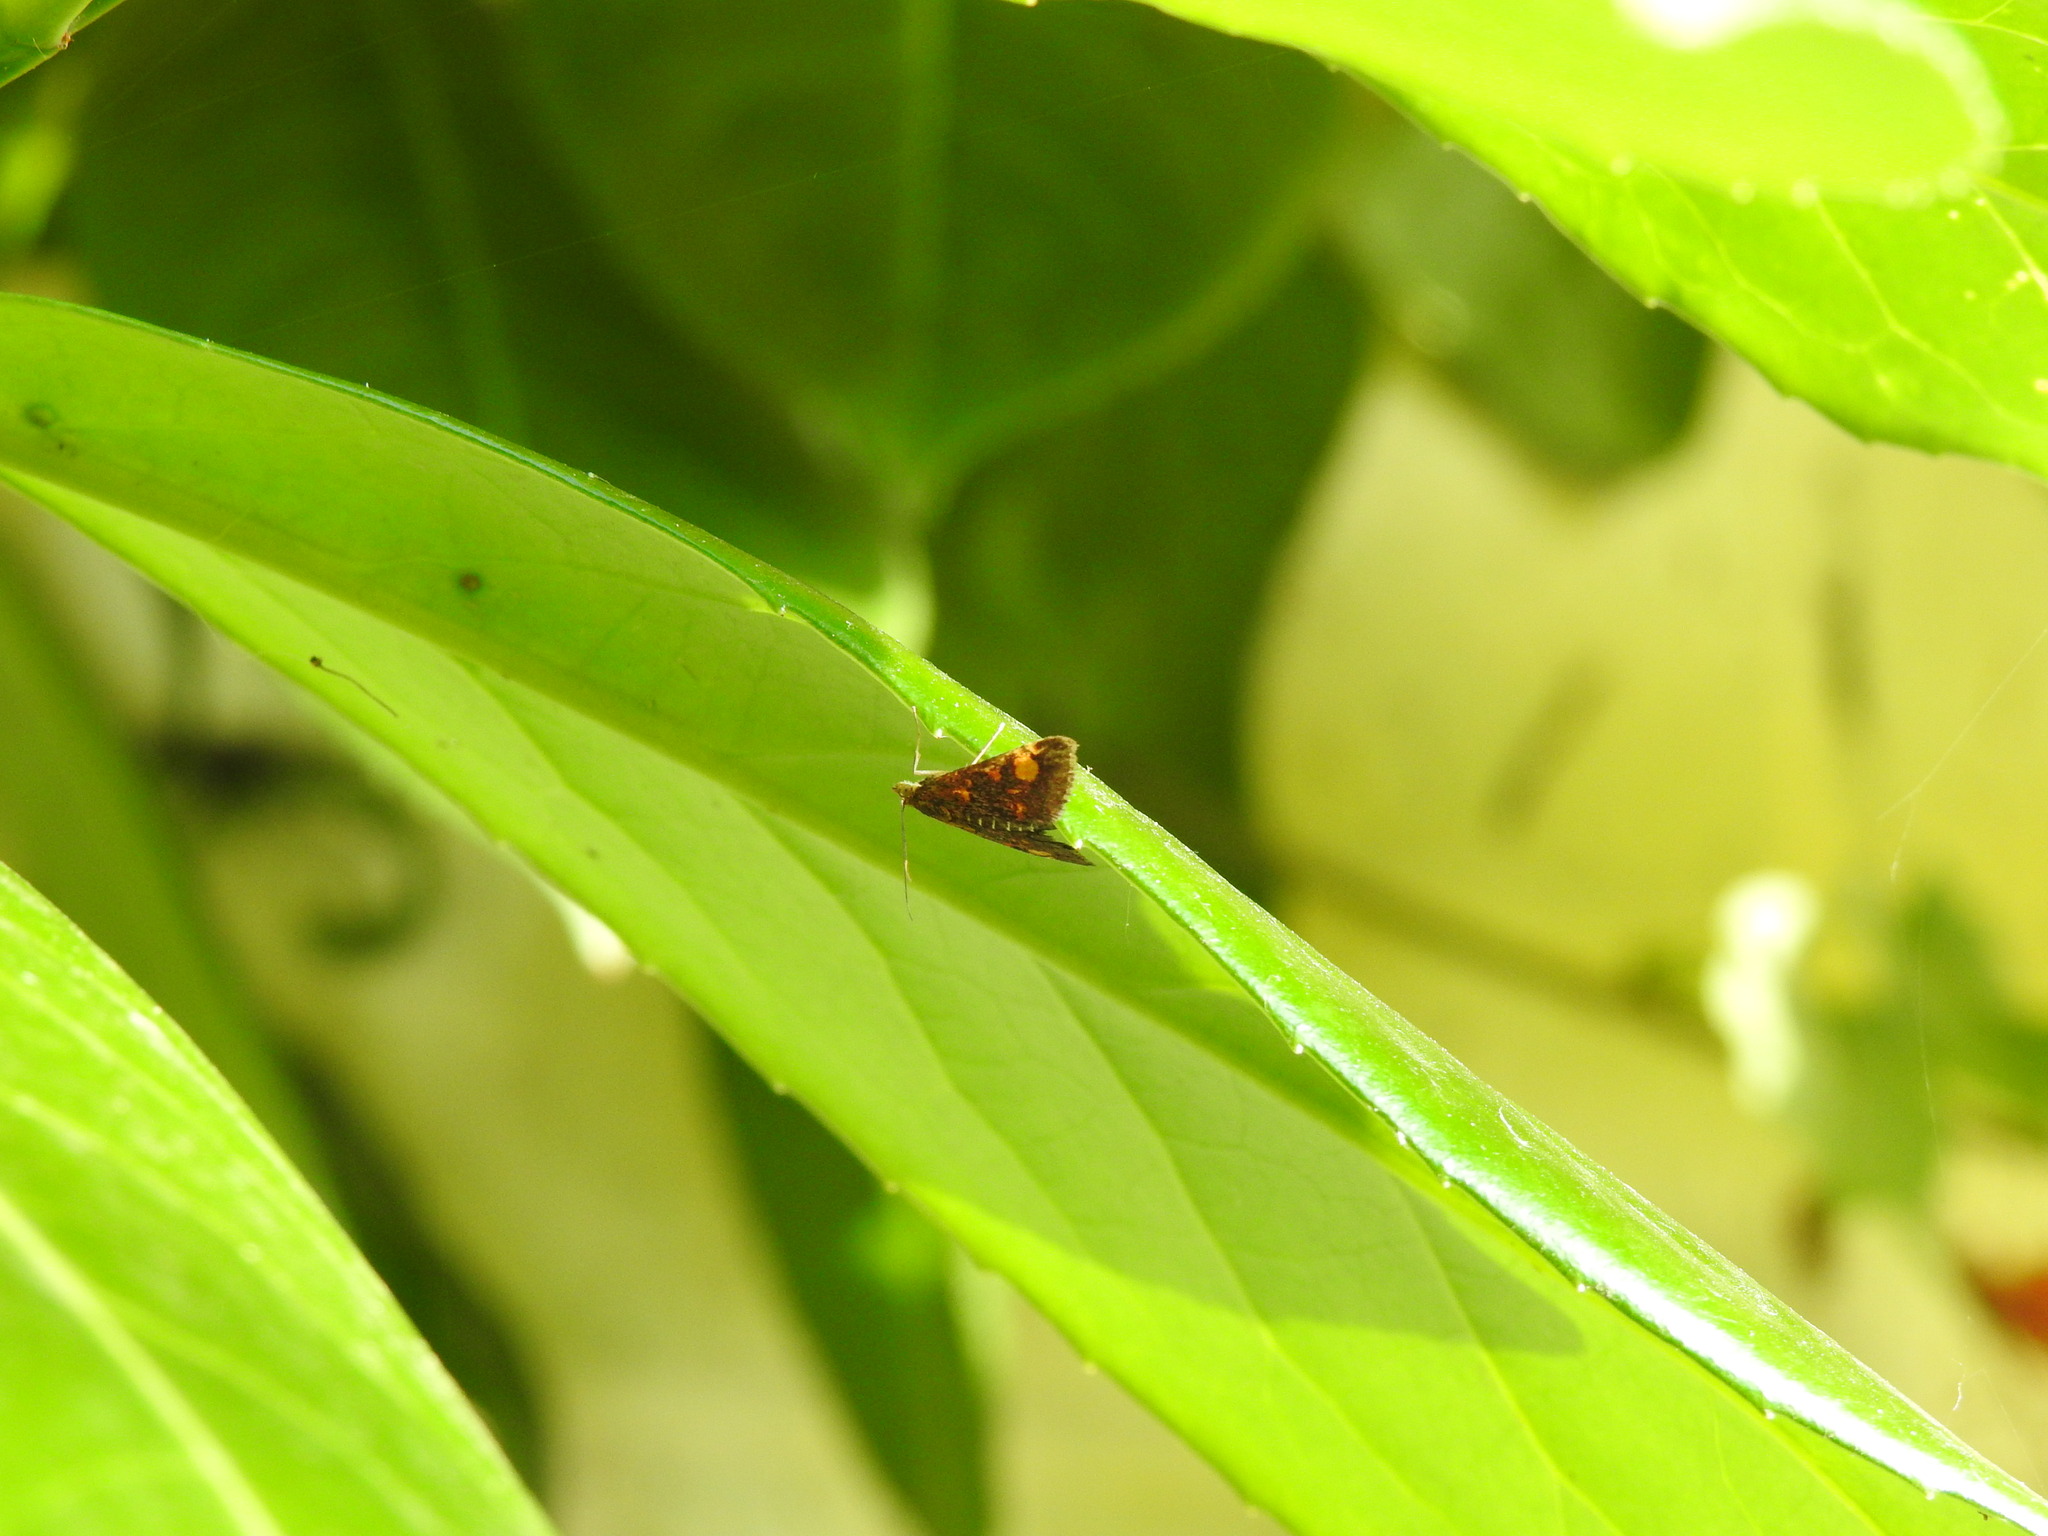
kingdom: Animalia
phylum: Arthropoda
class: Insecta
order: Lepidoptera
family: Crambidae
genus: Pyrausta
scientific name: Pyrausta aurata
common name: Small purple & gold
